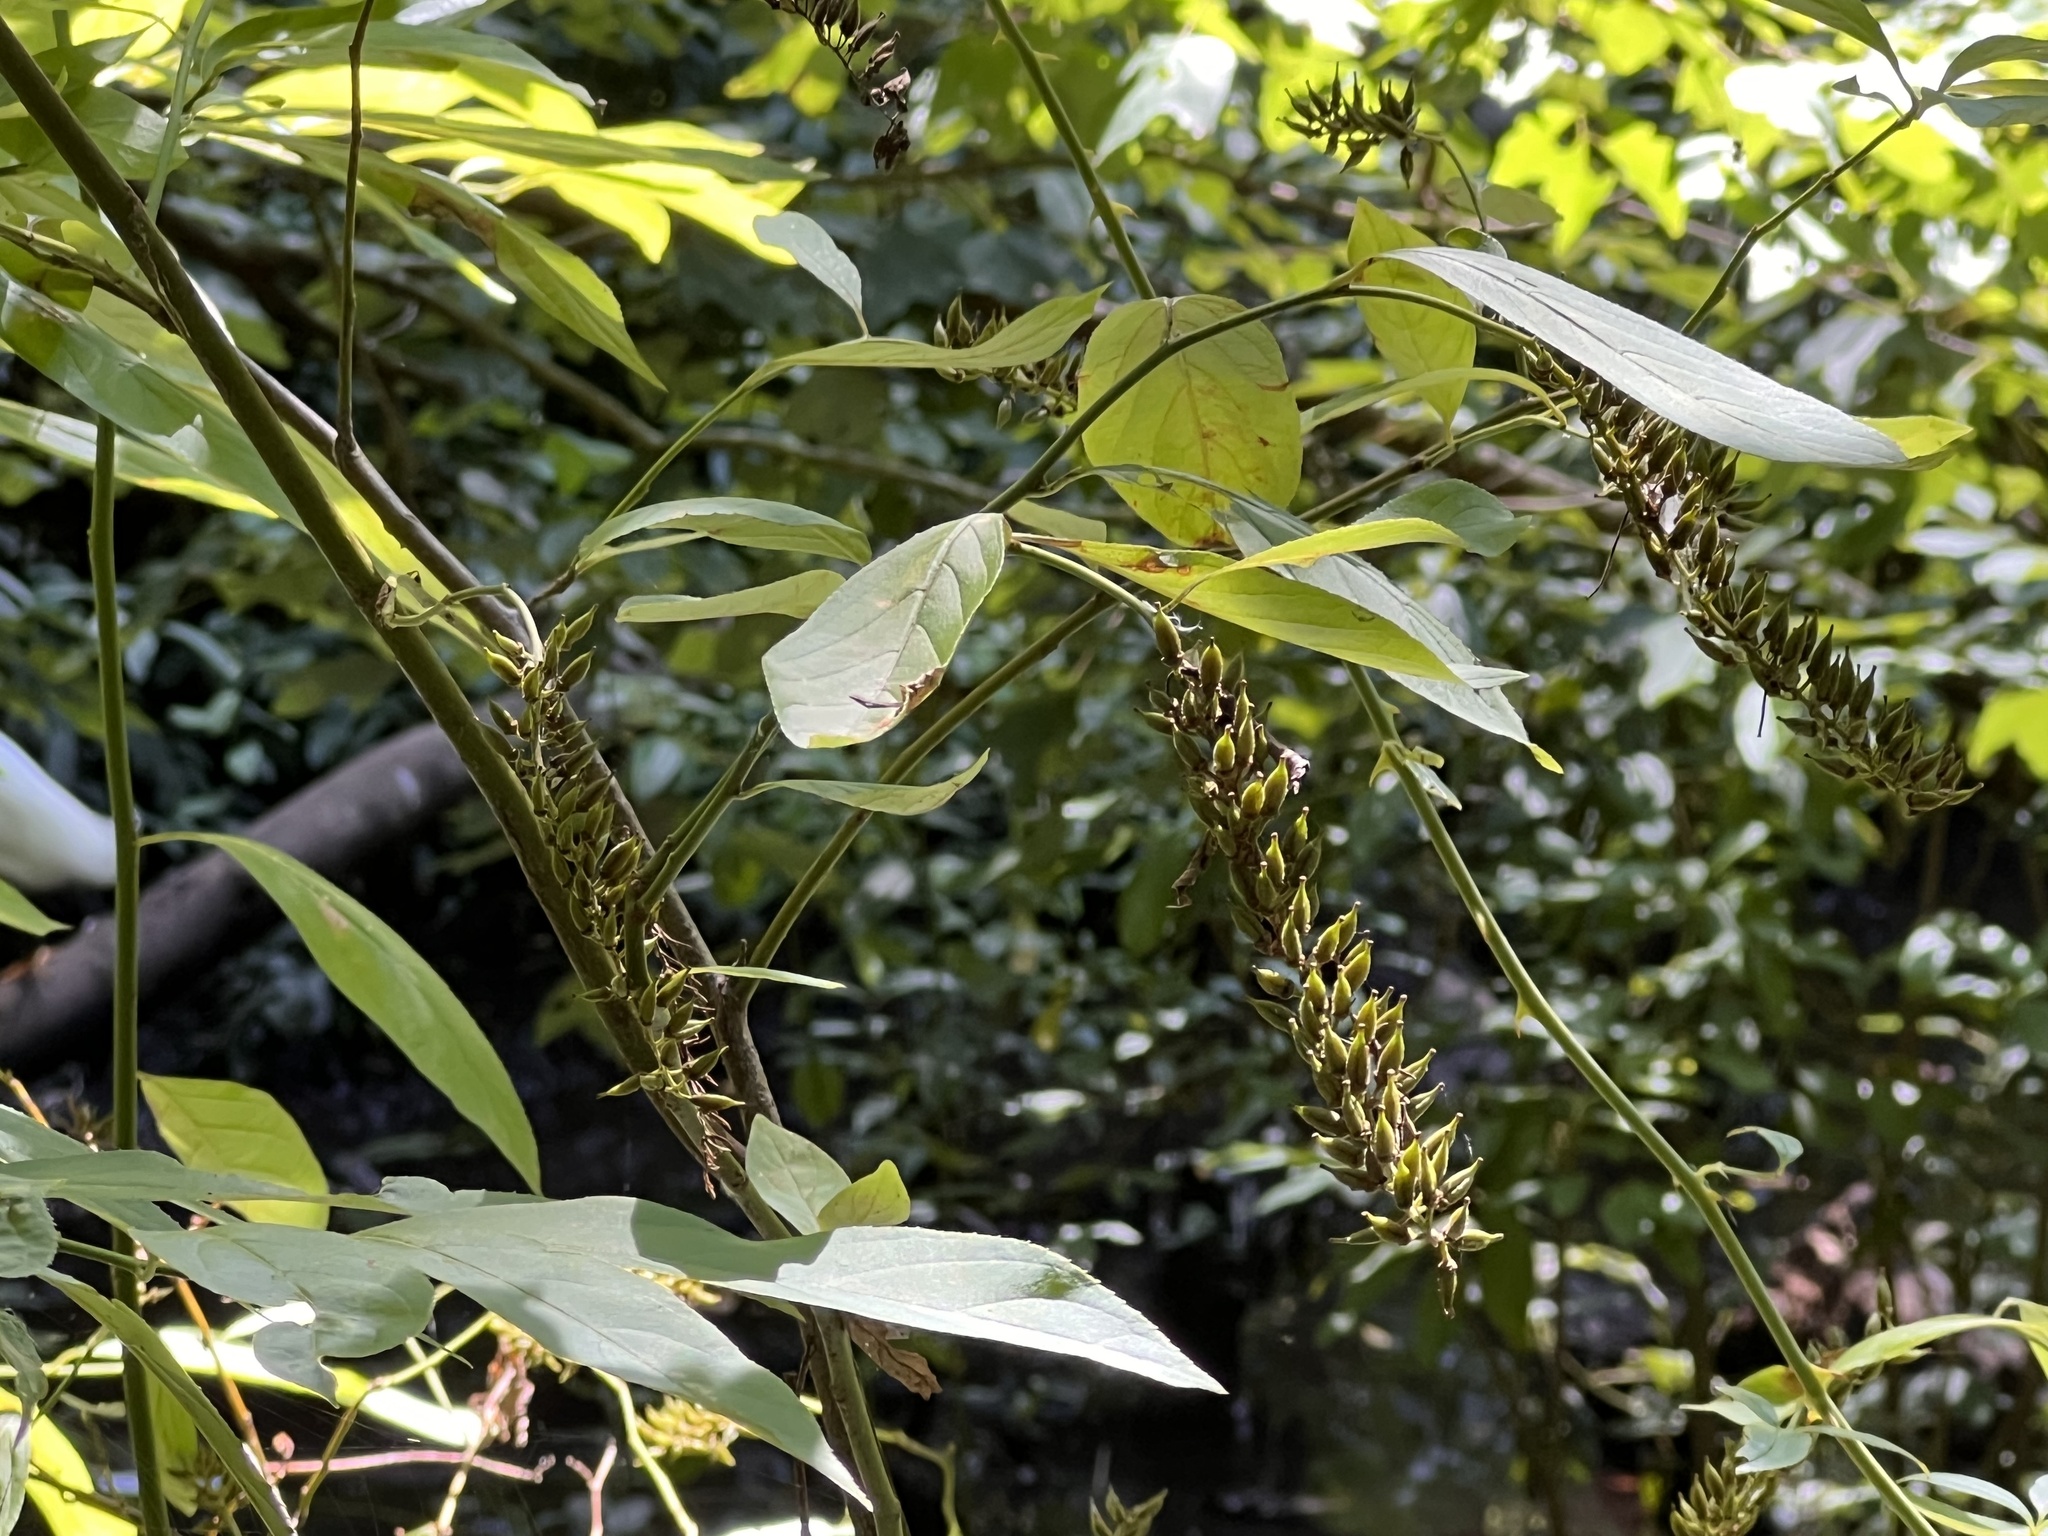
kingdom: Plantae
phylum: Tracheophyta
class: Magnoliopsida
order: Saxifragales
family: Iteaceae
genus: Itea
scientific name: Itea virginica
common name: Sweetspire
